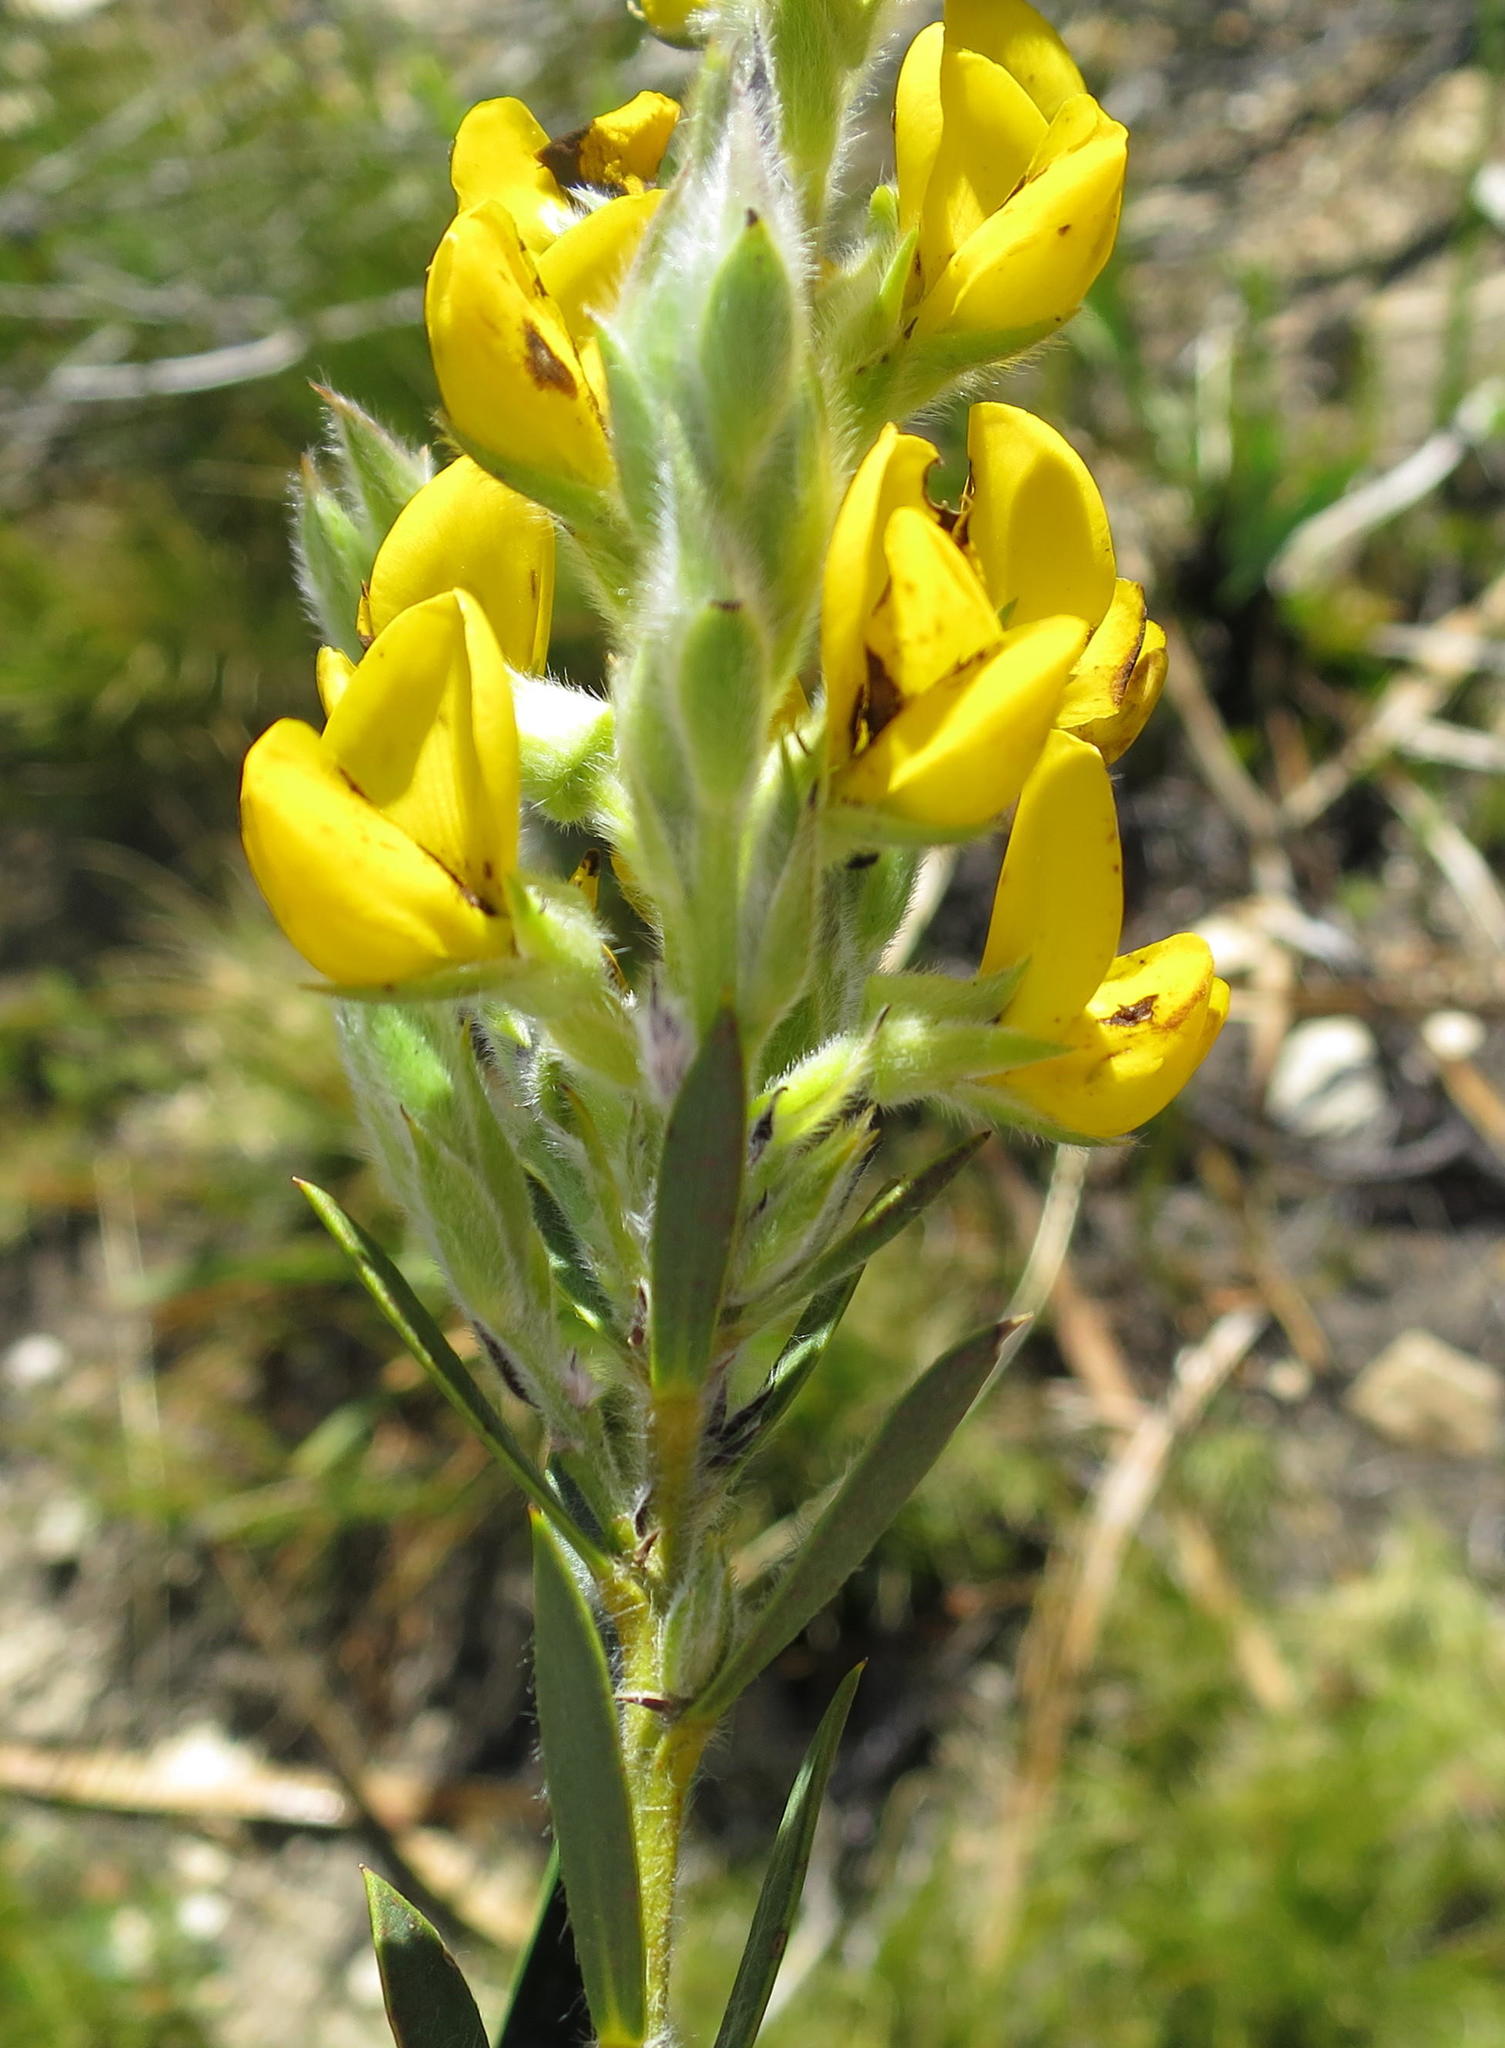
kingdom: Plantae
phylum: Tracheophyta
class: Magnoliopsida
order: Fabales
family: Fabaceae
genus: Liparia
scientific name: Liparia confusa
